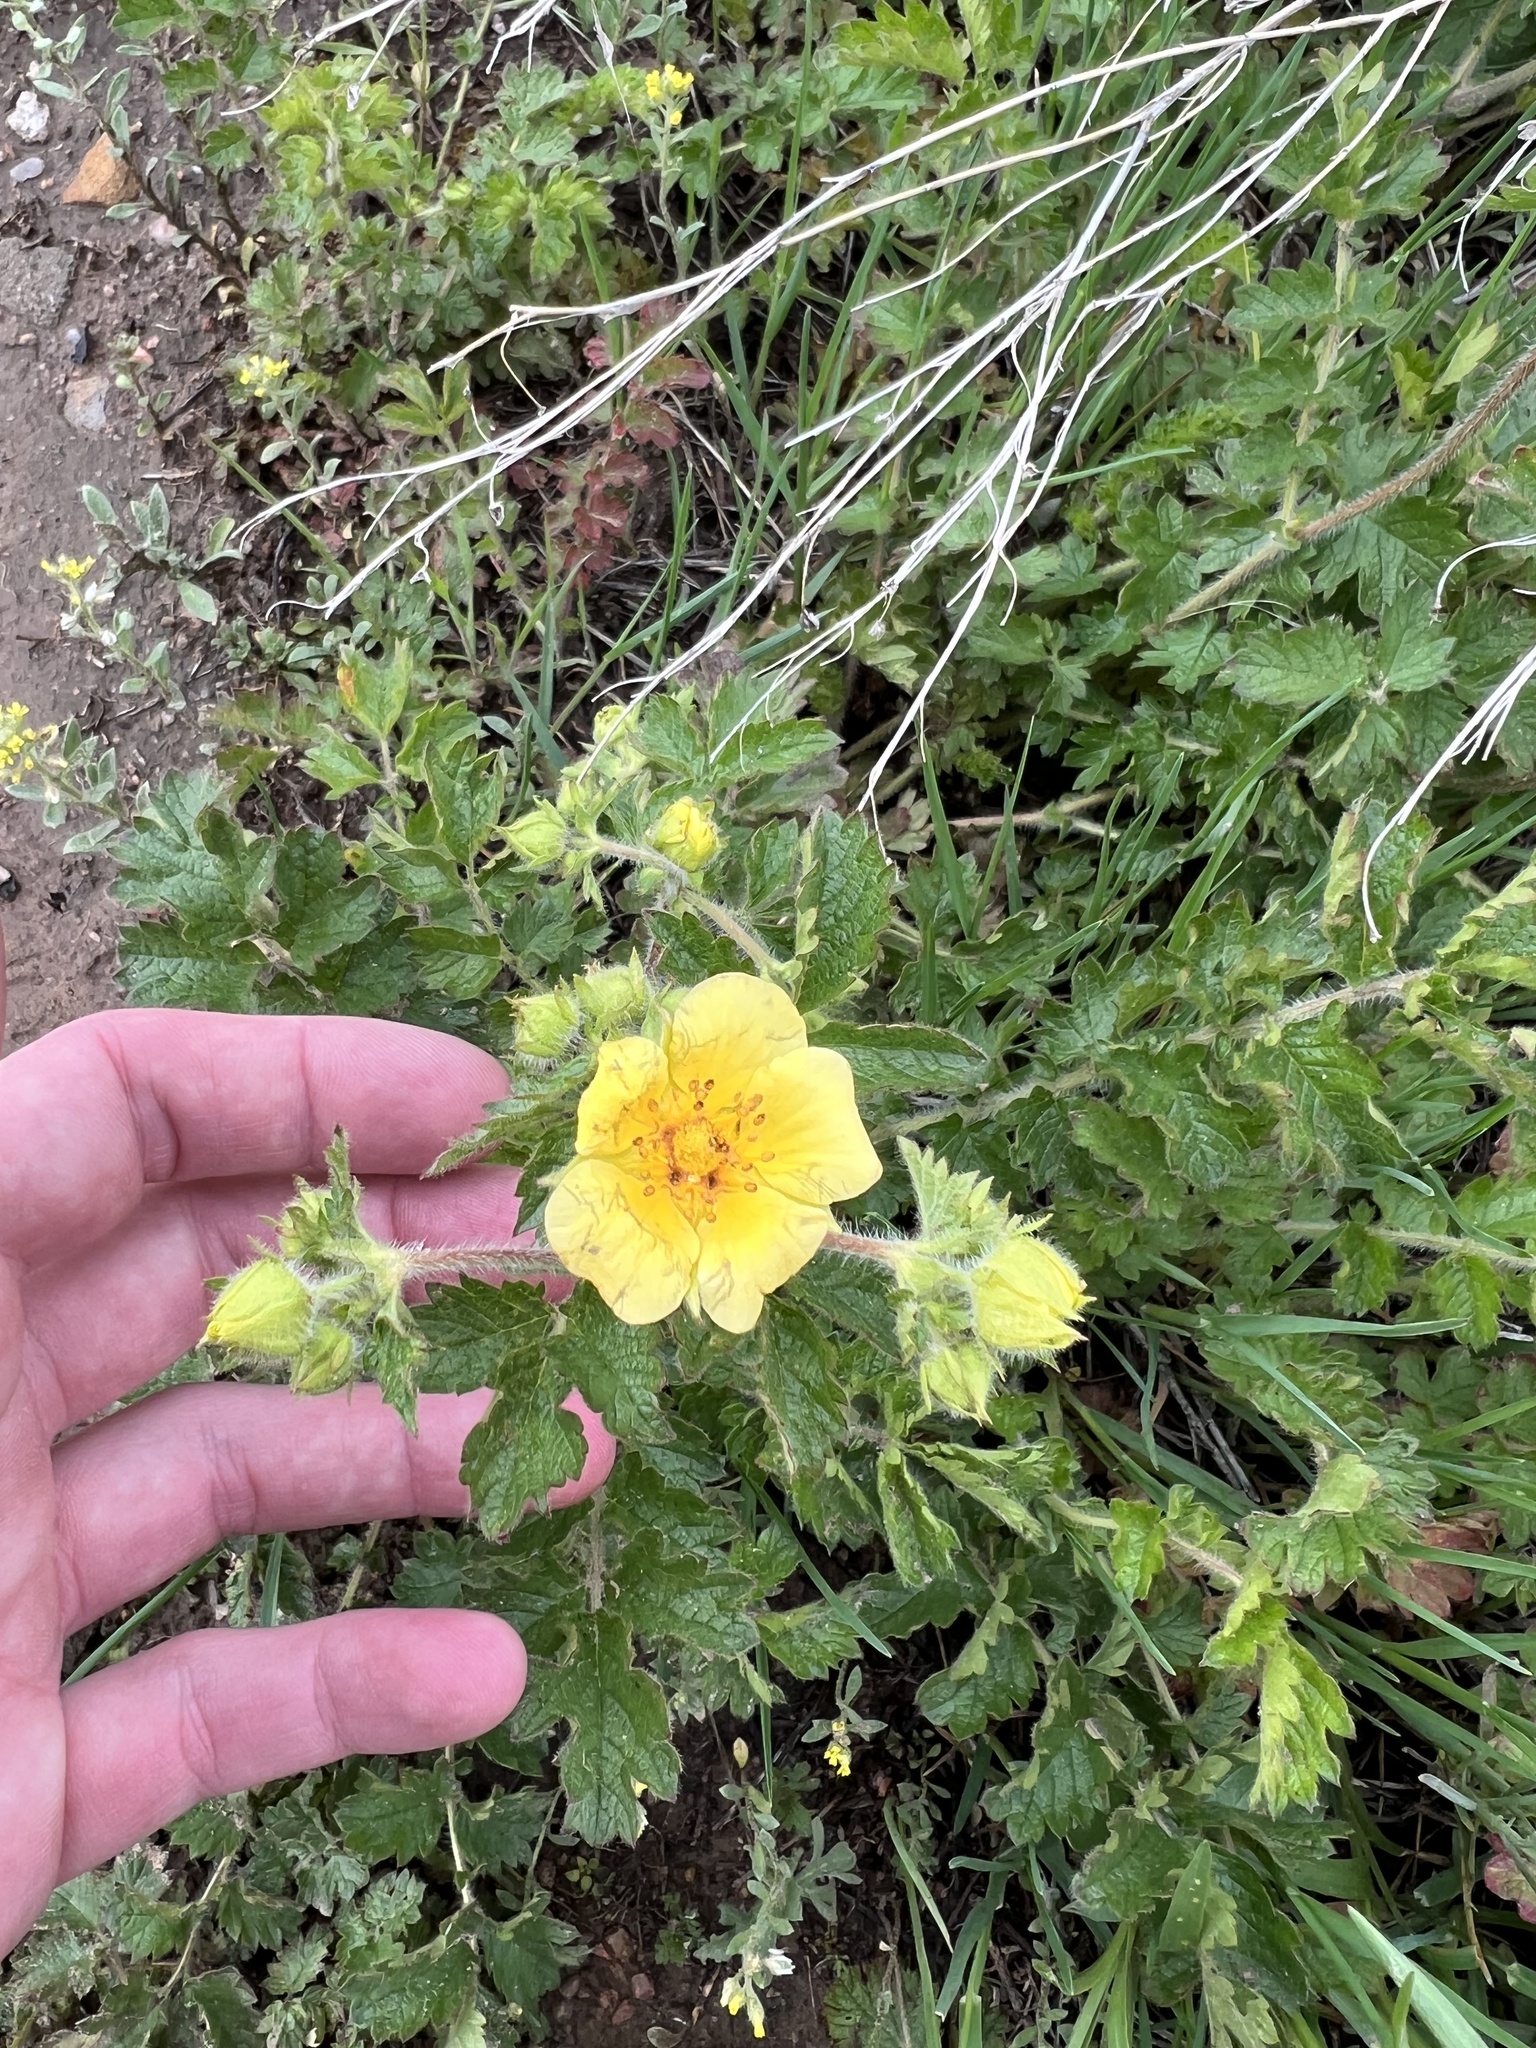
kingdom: Plantae
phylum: Tracheophyta
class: Magnoliopsida
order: Rosales
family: Rosaceae
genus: Drymocallis
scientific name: Drymocallis fissa
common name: Big-flowered cinquefoil
